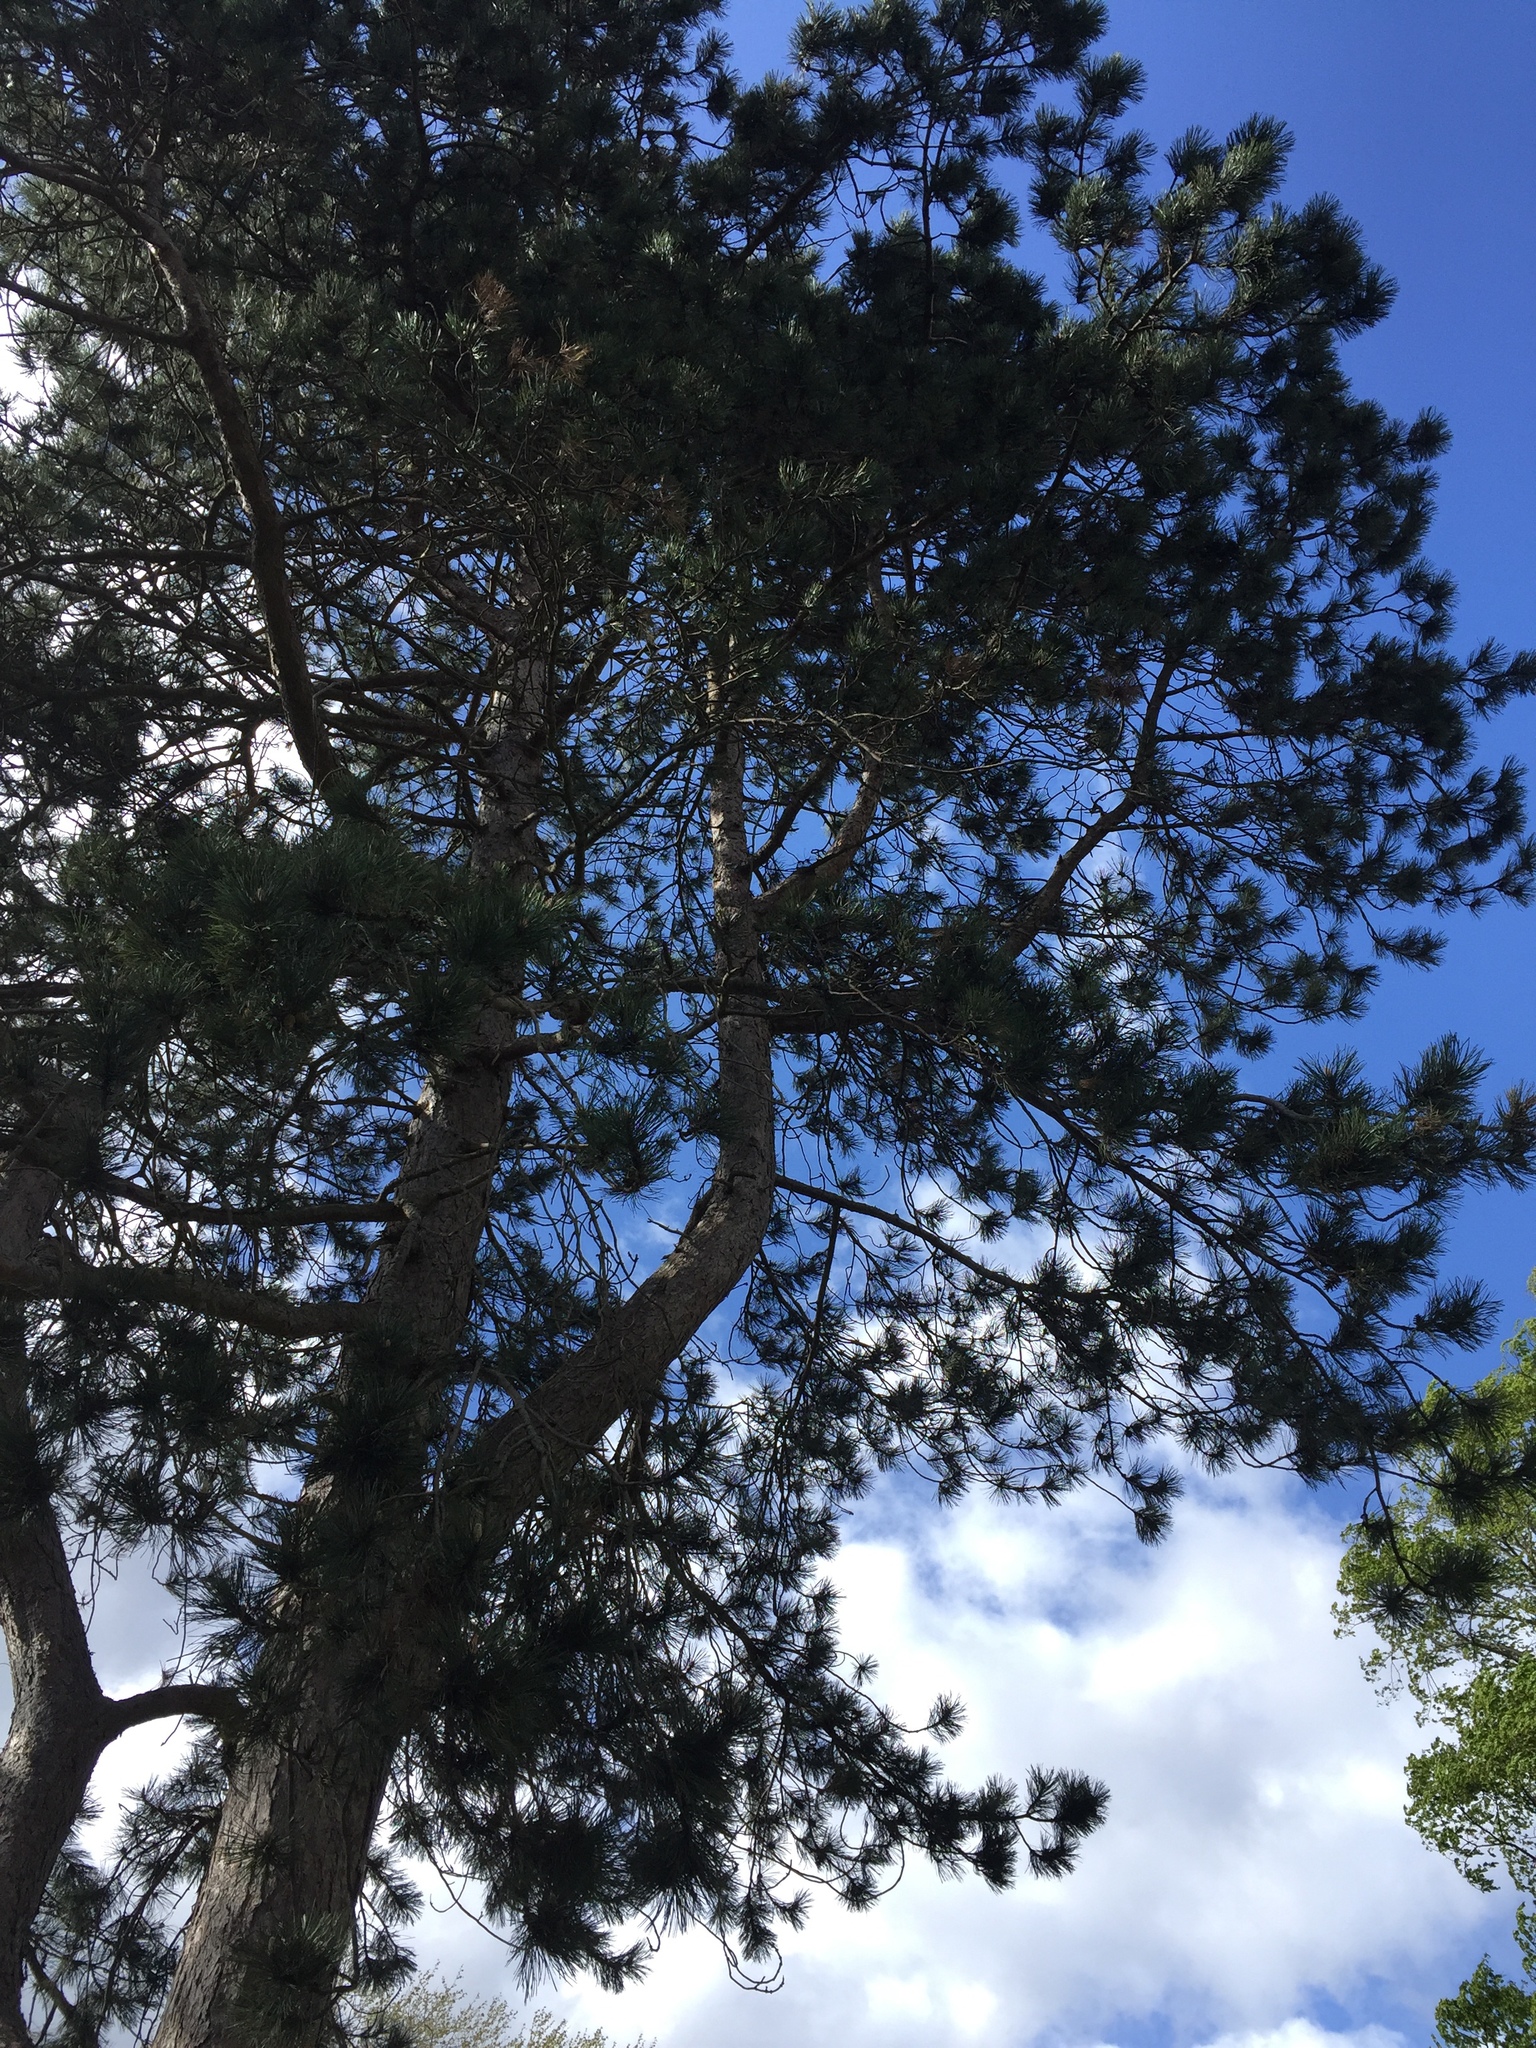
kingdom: Plantae
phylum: Tracheophyta
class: Pinopsida
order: Pinales
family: Pinaceae
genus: Pinus
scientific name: Pinus sylvestris
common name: Scots pine
